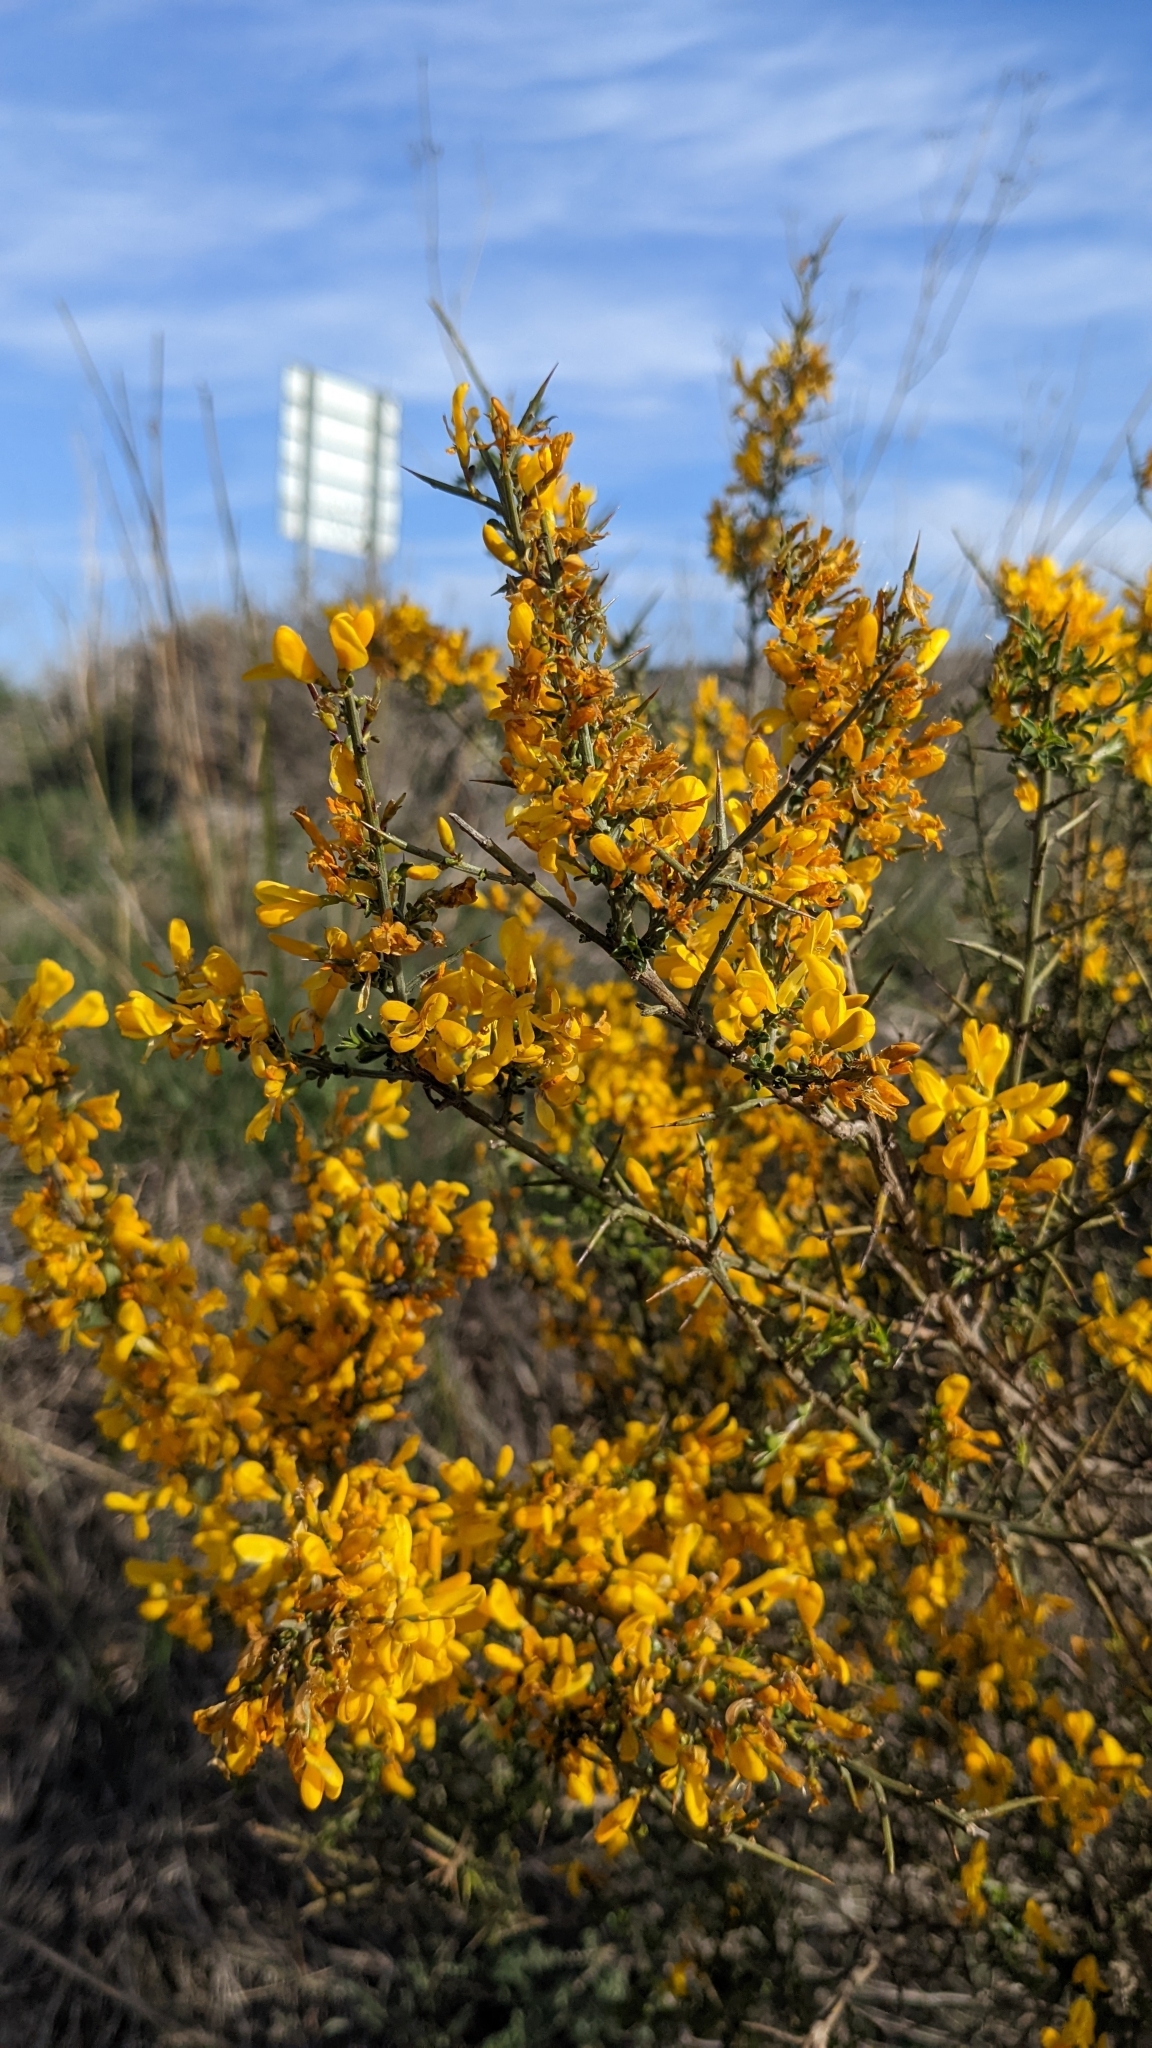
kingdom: Plantae
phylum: Tracheophyta
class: Magnoliopsida
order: Fabales
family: Fabaceae
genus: Genista
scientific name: Genista scorpius
